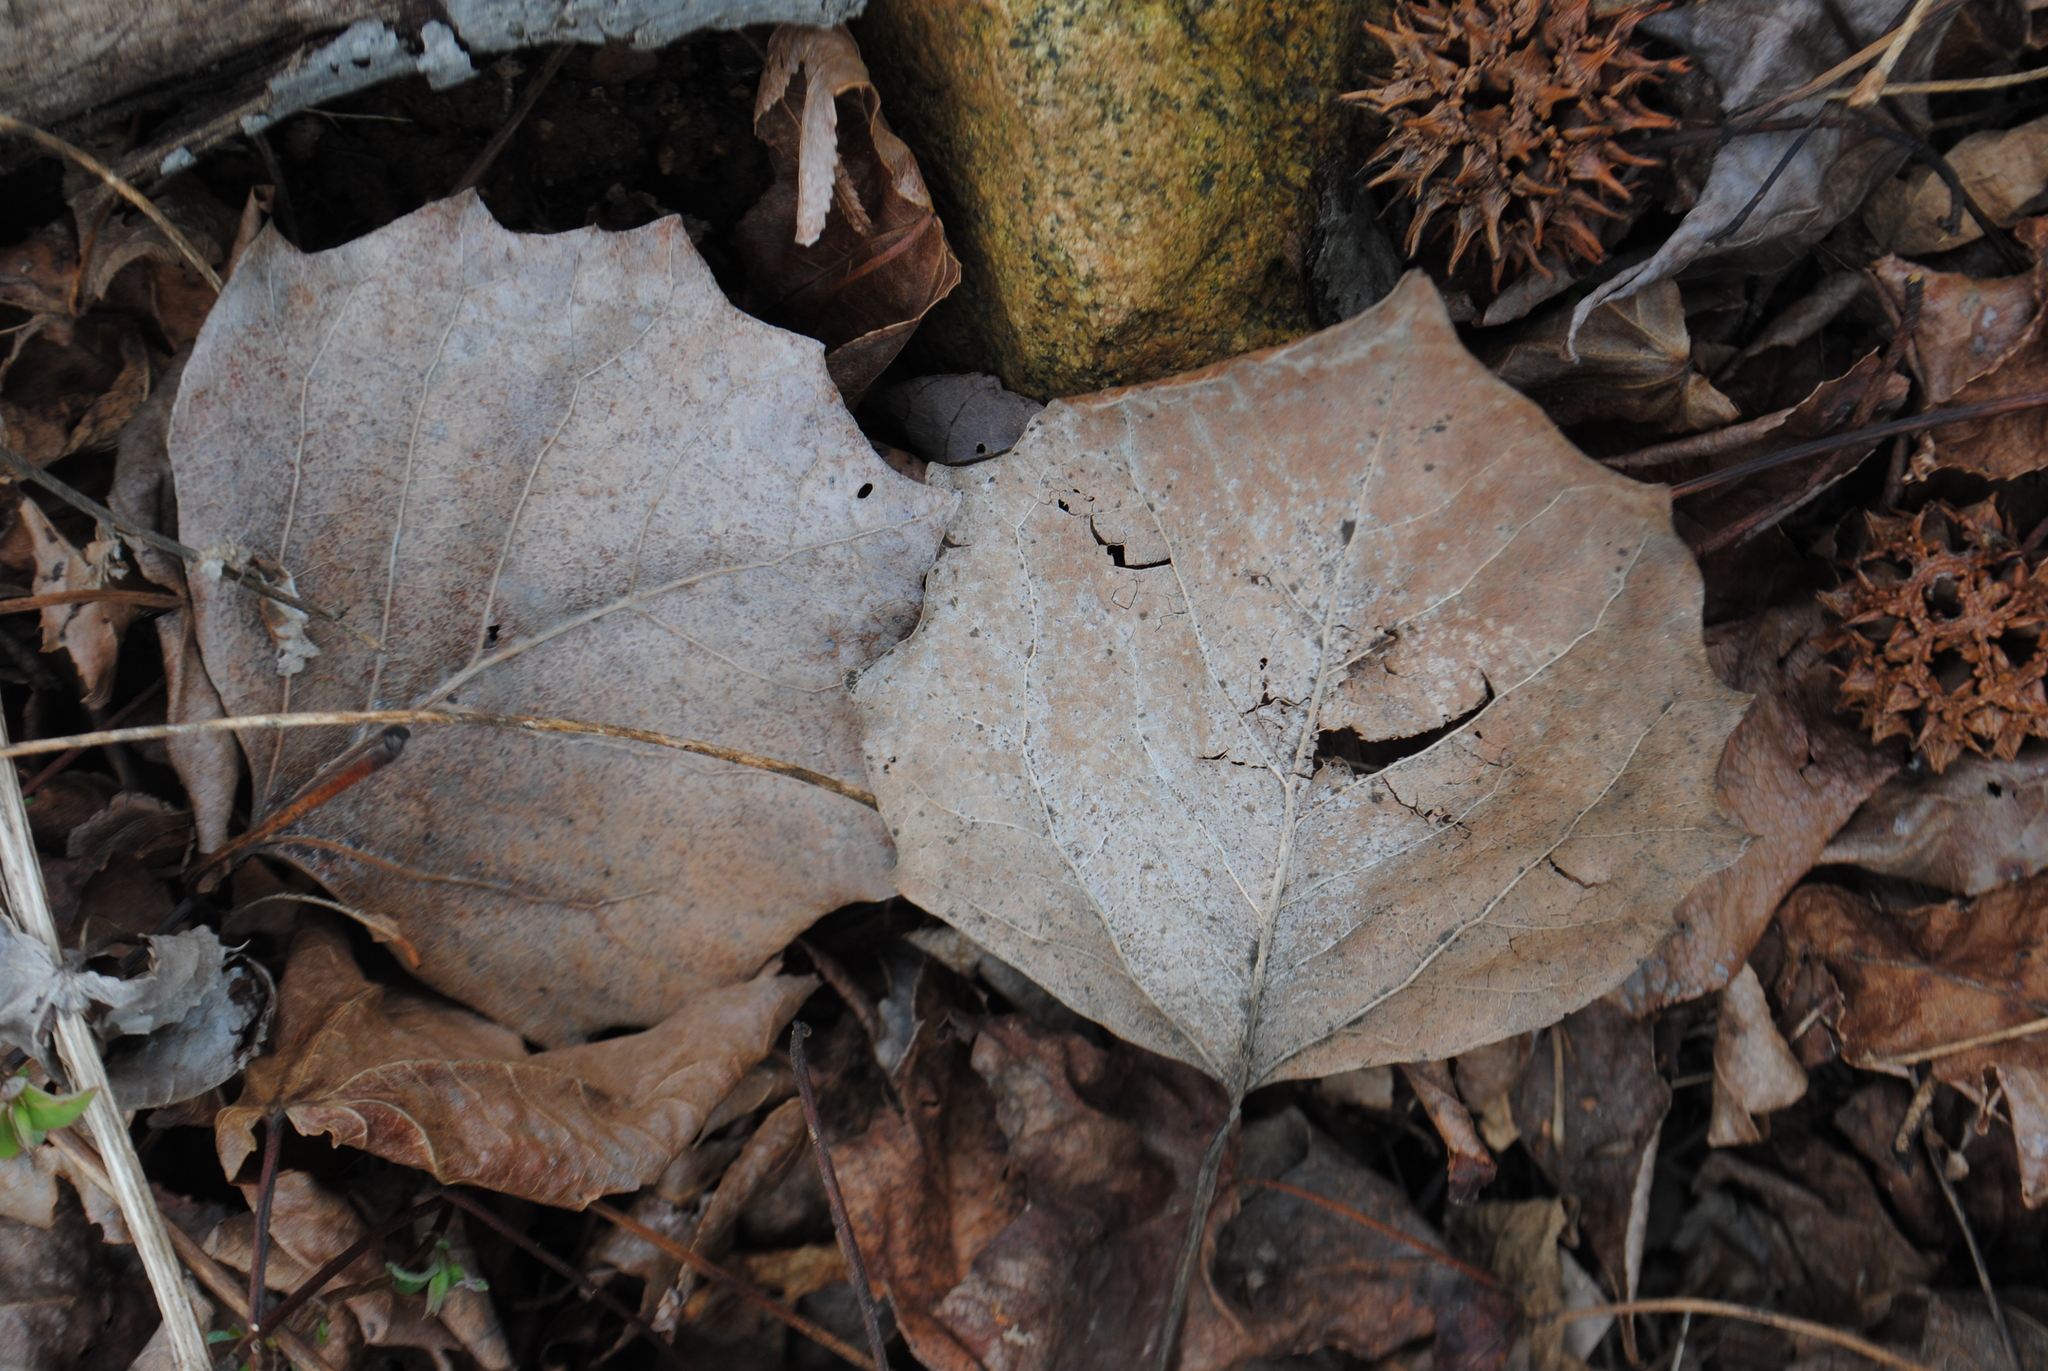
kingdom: Plantae
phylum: Tracheophyta
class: Magnoliopsida
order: Malpighiales
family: Salicaceae
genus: Populus
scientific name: Populus grandidentata
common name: Bigtooth aspen
